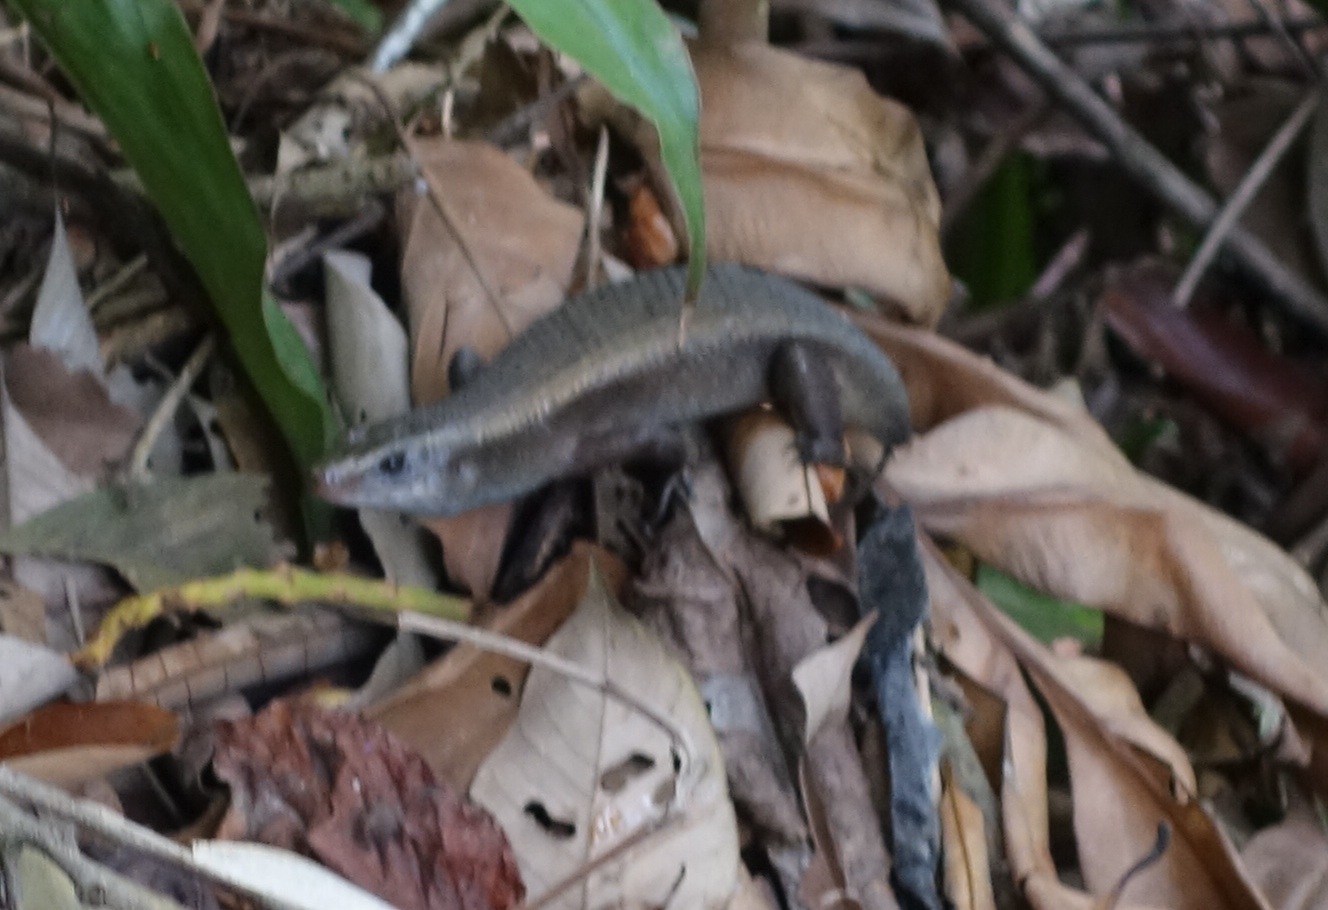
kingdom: Animalia
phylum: Chordata
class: Squamata
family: Scincidae
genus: Eutropis
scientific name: Eutropis multifasciata
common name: Common mabuya
